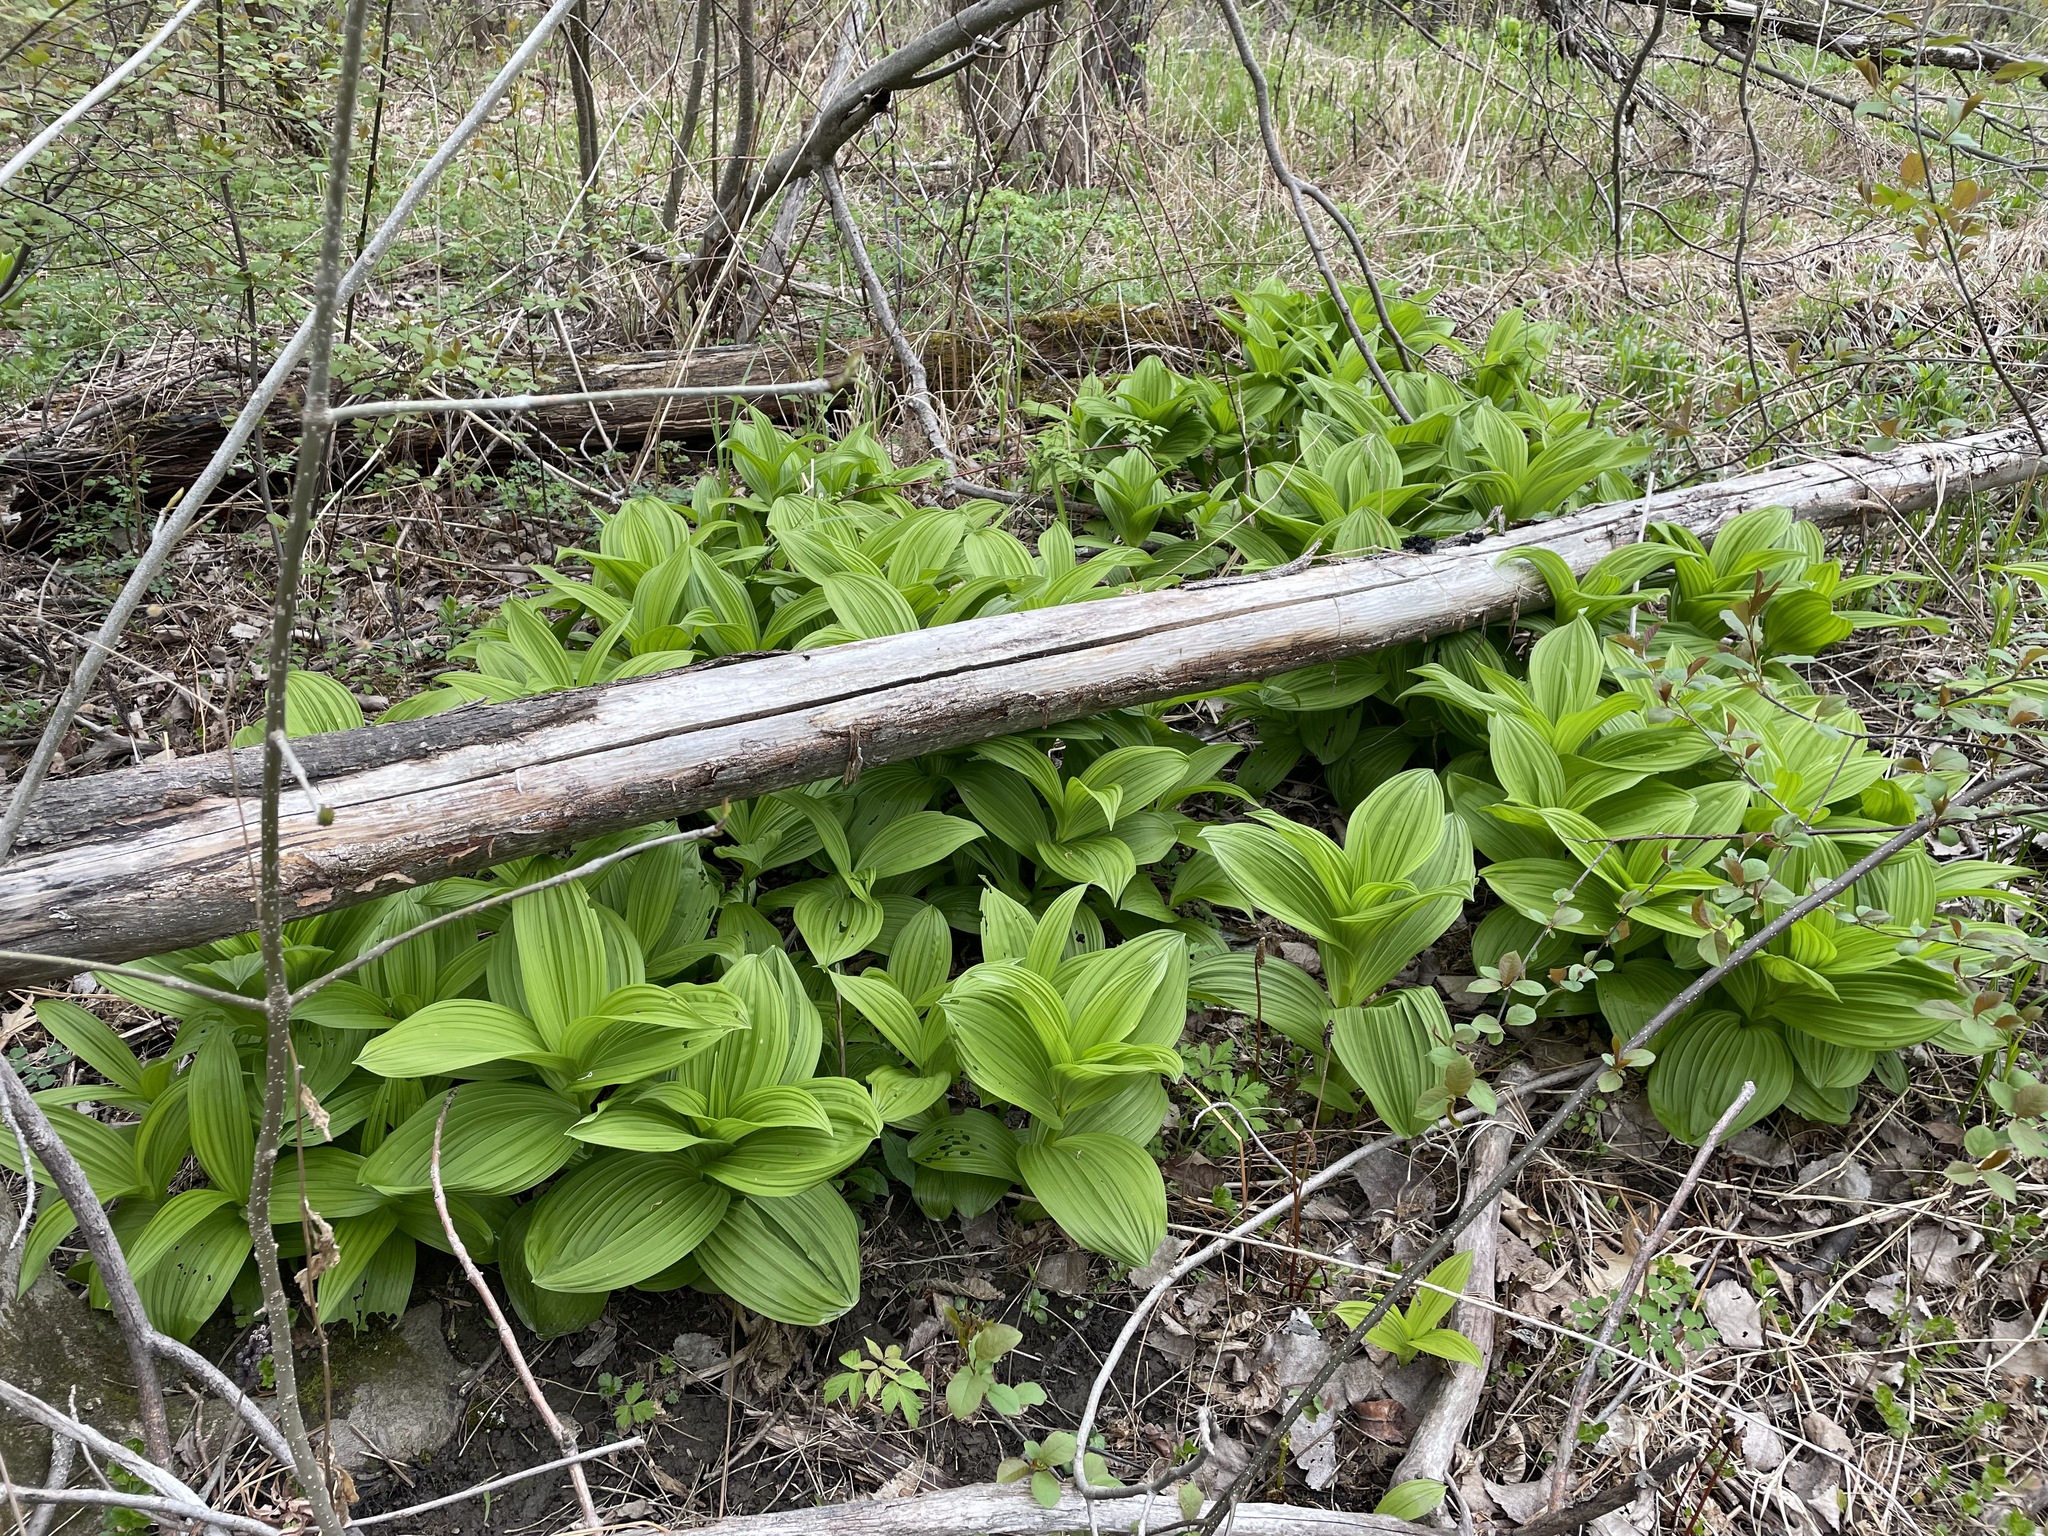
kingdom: Plantae
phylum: Tracheophyta
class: Liliopsida
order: Liliales
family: Melanthiaceae
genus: Veratrum
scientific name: Veratrum viride
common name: American false hellebore
